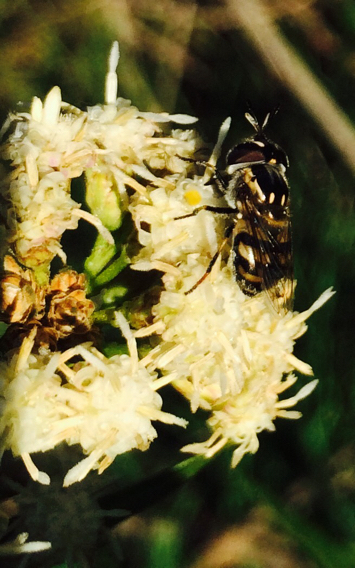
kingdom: Animalia
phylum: Arthropoda
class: Insecta
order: Diptera
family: Syrphidae
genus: Copestylum
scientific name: Copestylum marginatum
